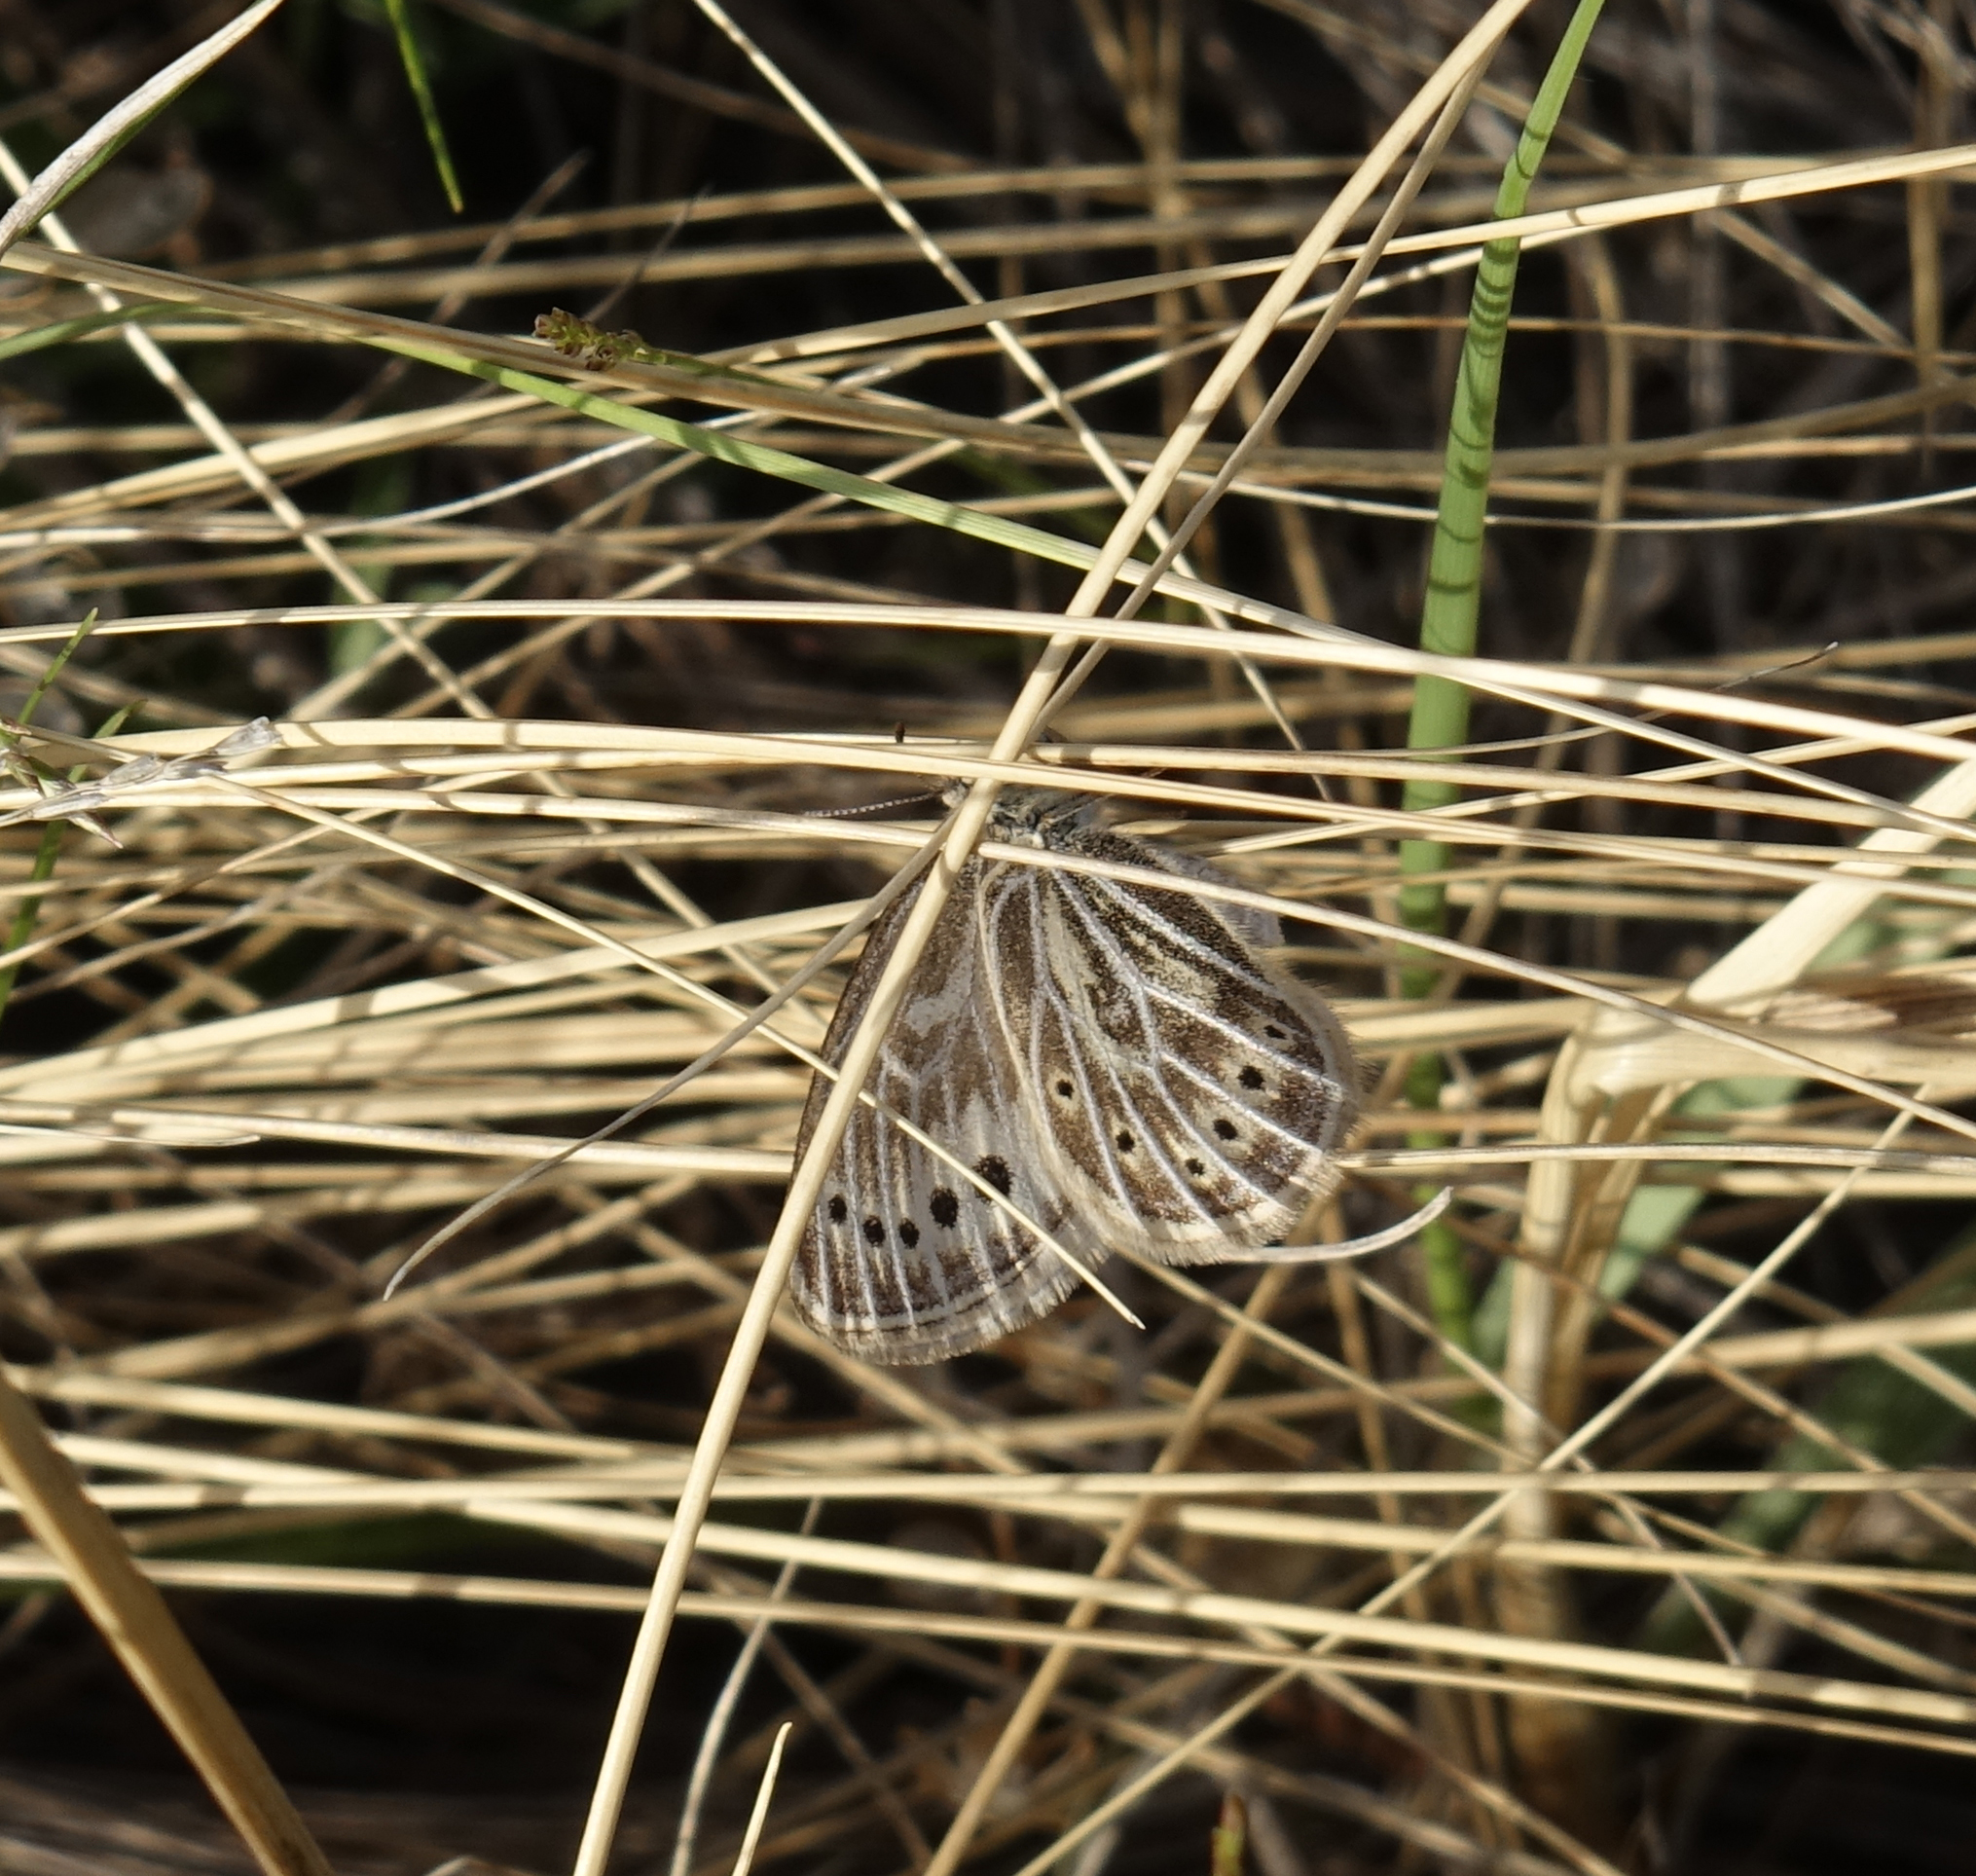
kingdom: Animalia
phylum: Arthropoda
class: Insecta
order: Lepidoptera
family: Nymphalidae
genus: Triphysa
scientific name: Triphysa phryne
